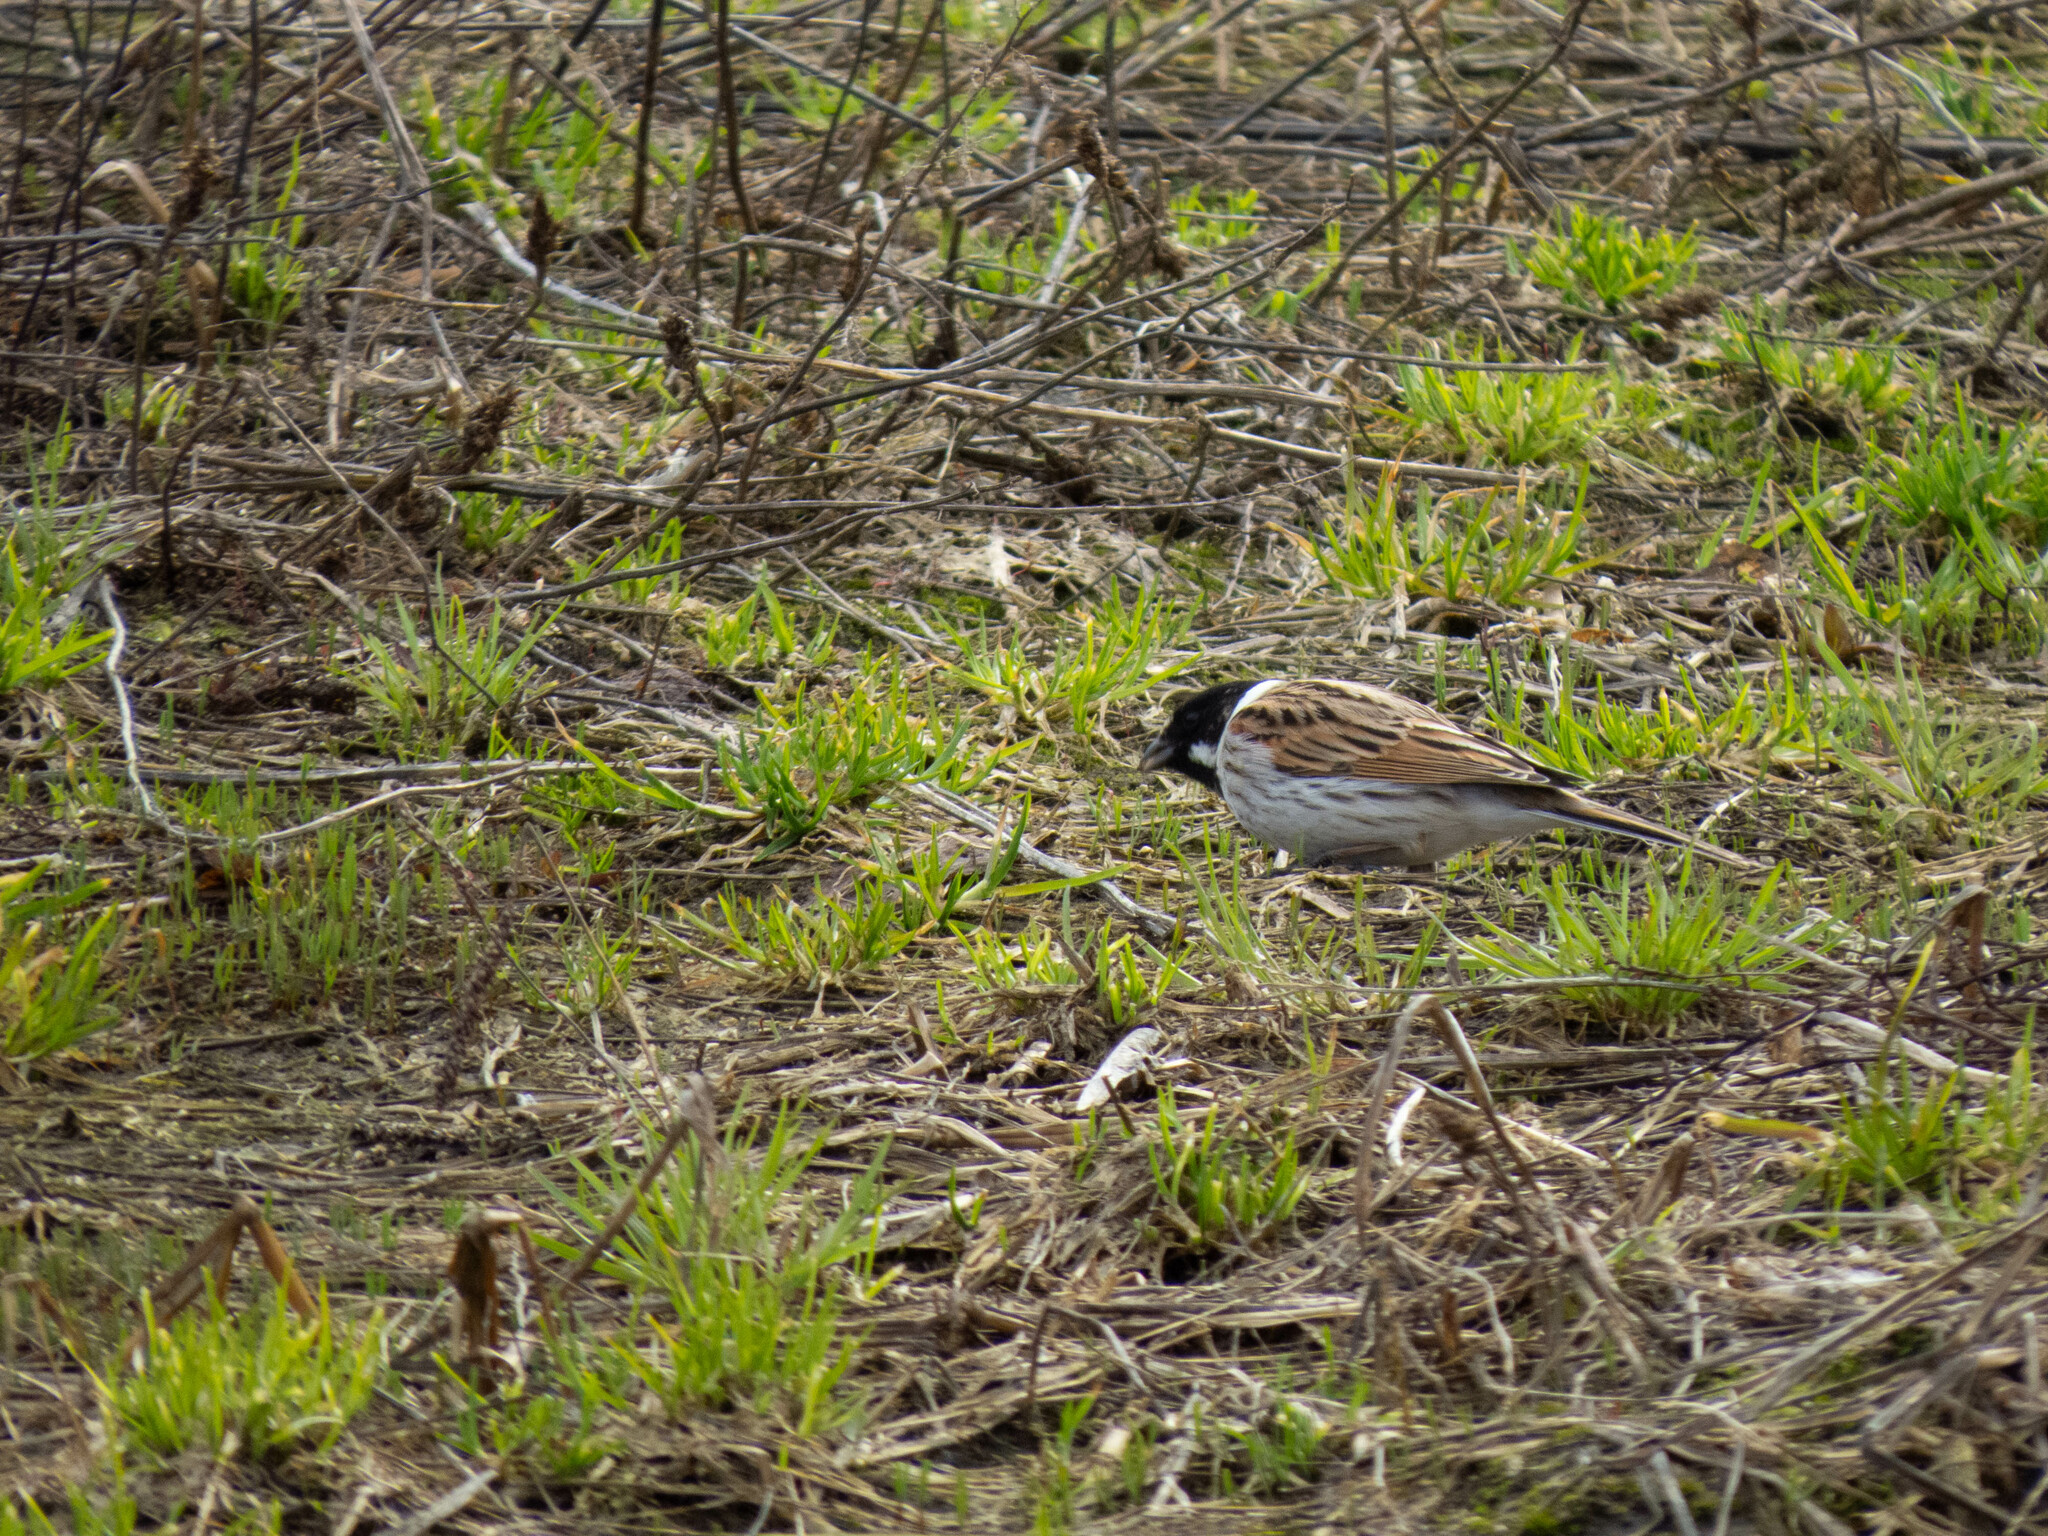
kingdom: Animalia
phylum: Chordata
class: Aves
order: Passeriformes
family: Emberizidae
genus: Emberiza
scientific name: Emberiza schoeniclus
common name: Reed bunting
